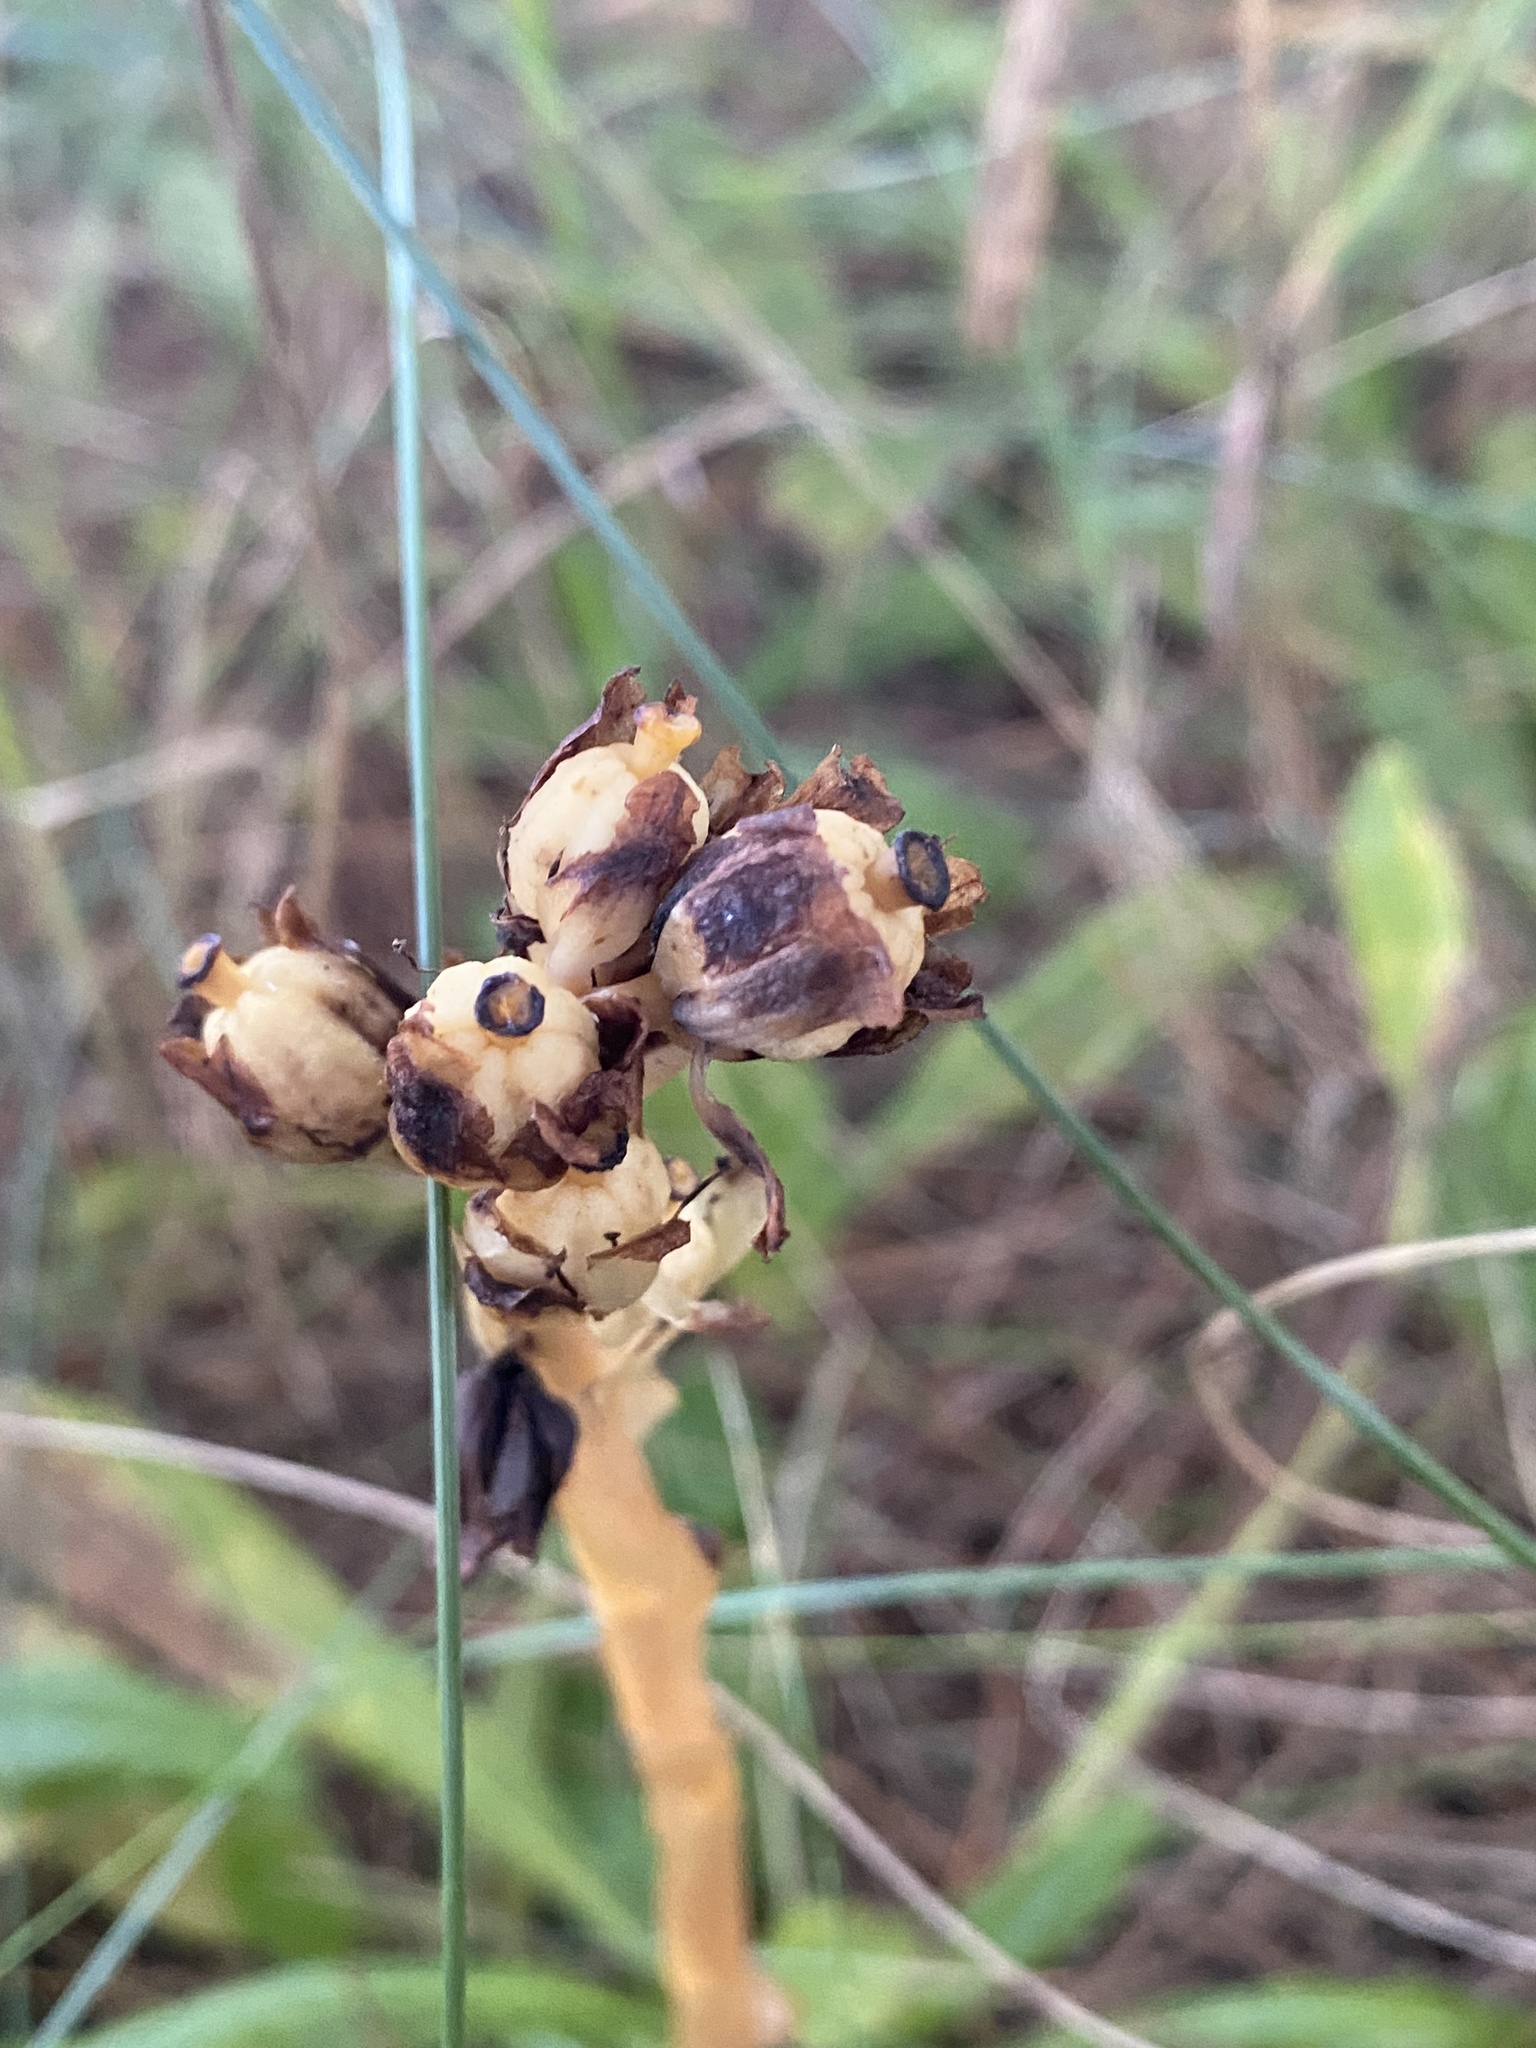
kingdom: Plantae
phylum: Tracheophyta
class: Magnoliopsida
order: Ericales
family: Ericaceae
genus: Hypopitys
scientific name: Hypopitys monotropa
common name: Yellow bird's-nest
